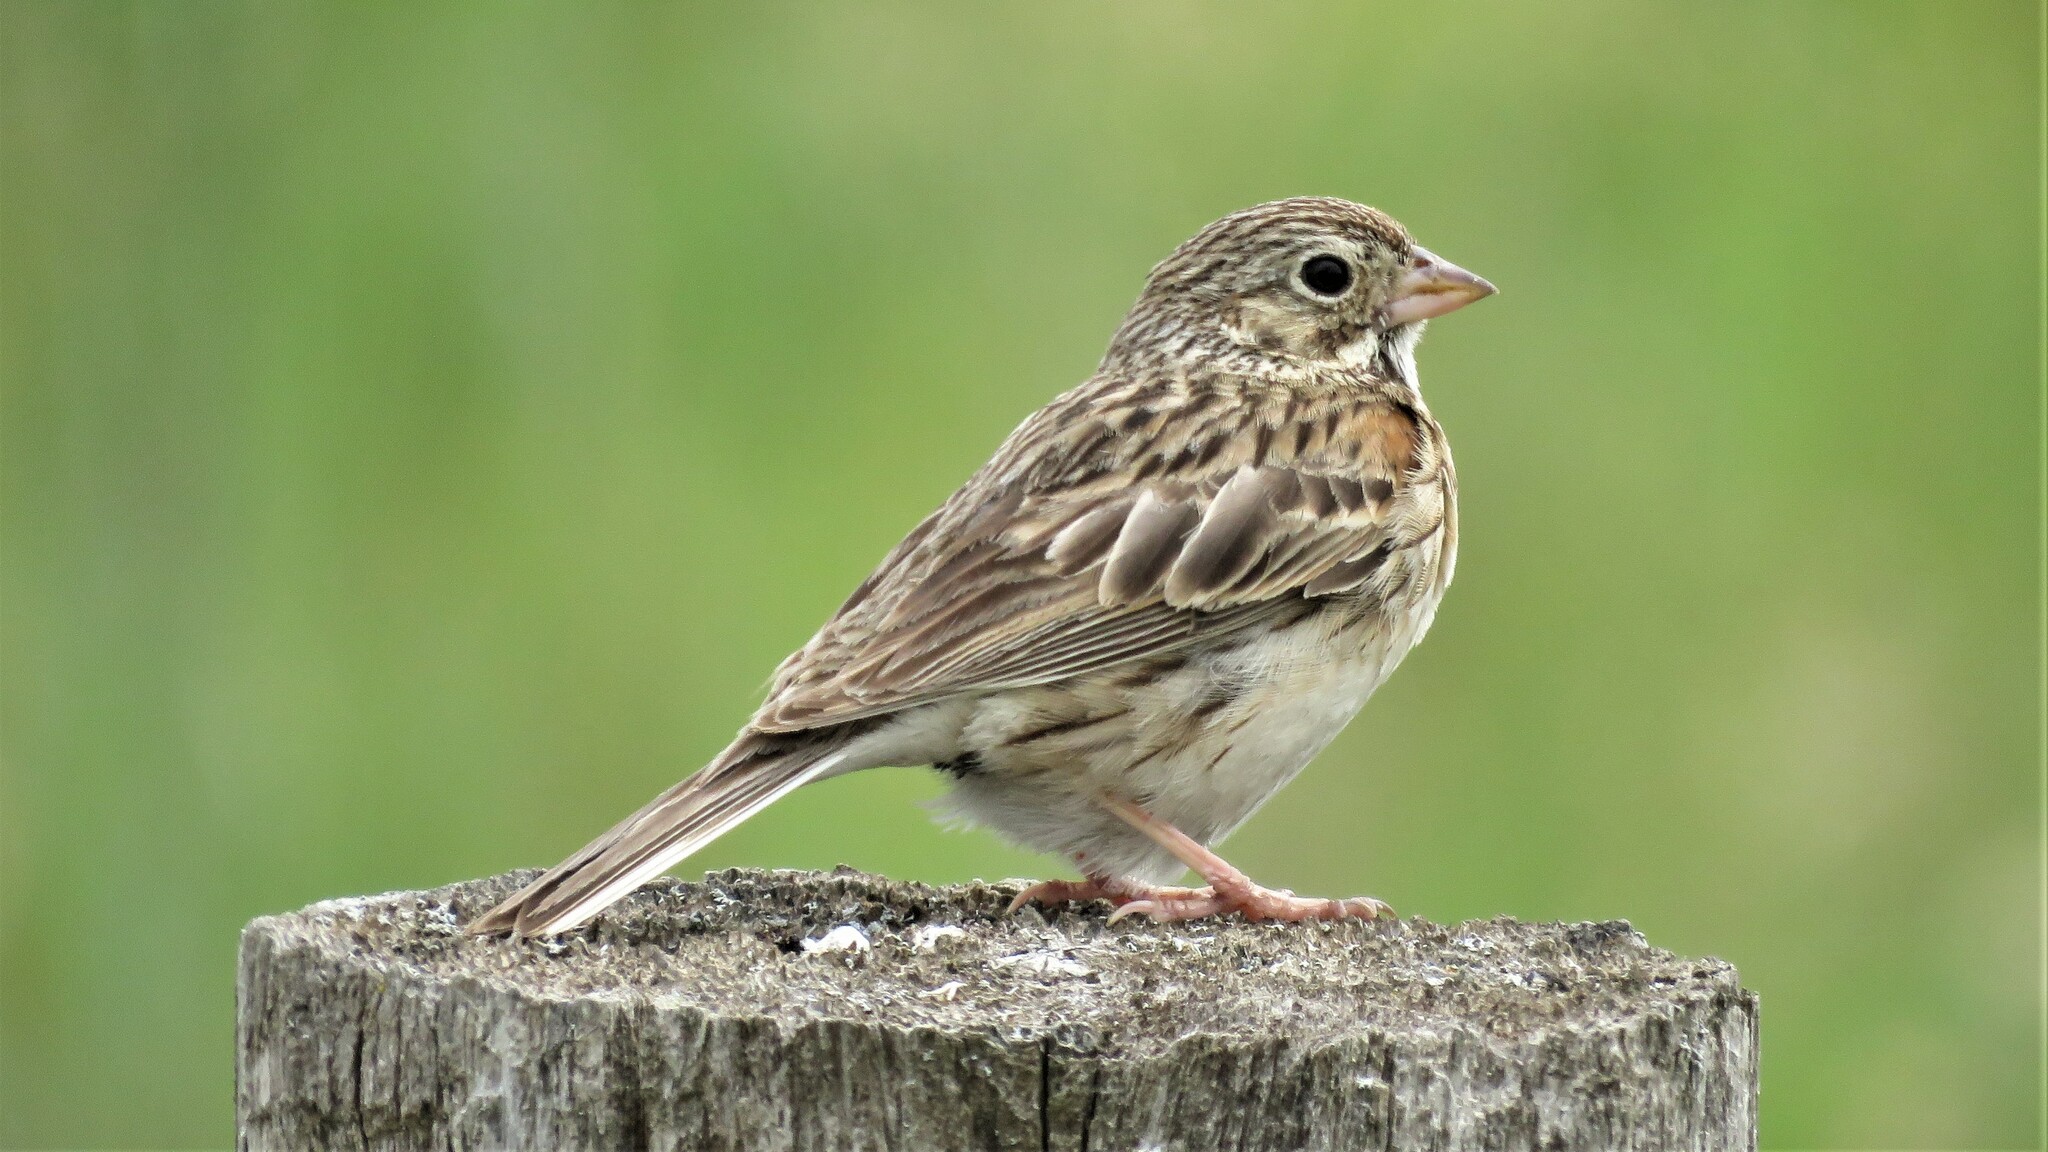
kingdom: Animalia
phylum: Chordata
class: Aves
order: Passeriformes
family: Passerellidae
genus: Pooecetes
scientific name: Pooecetes gramineus
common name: Vesper sparrow
